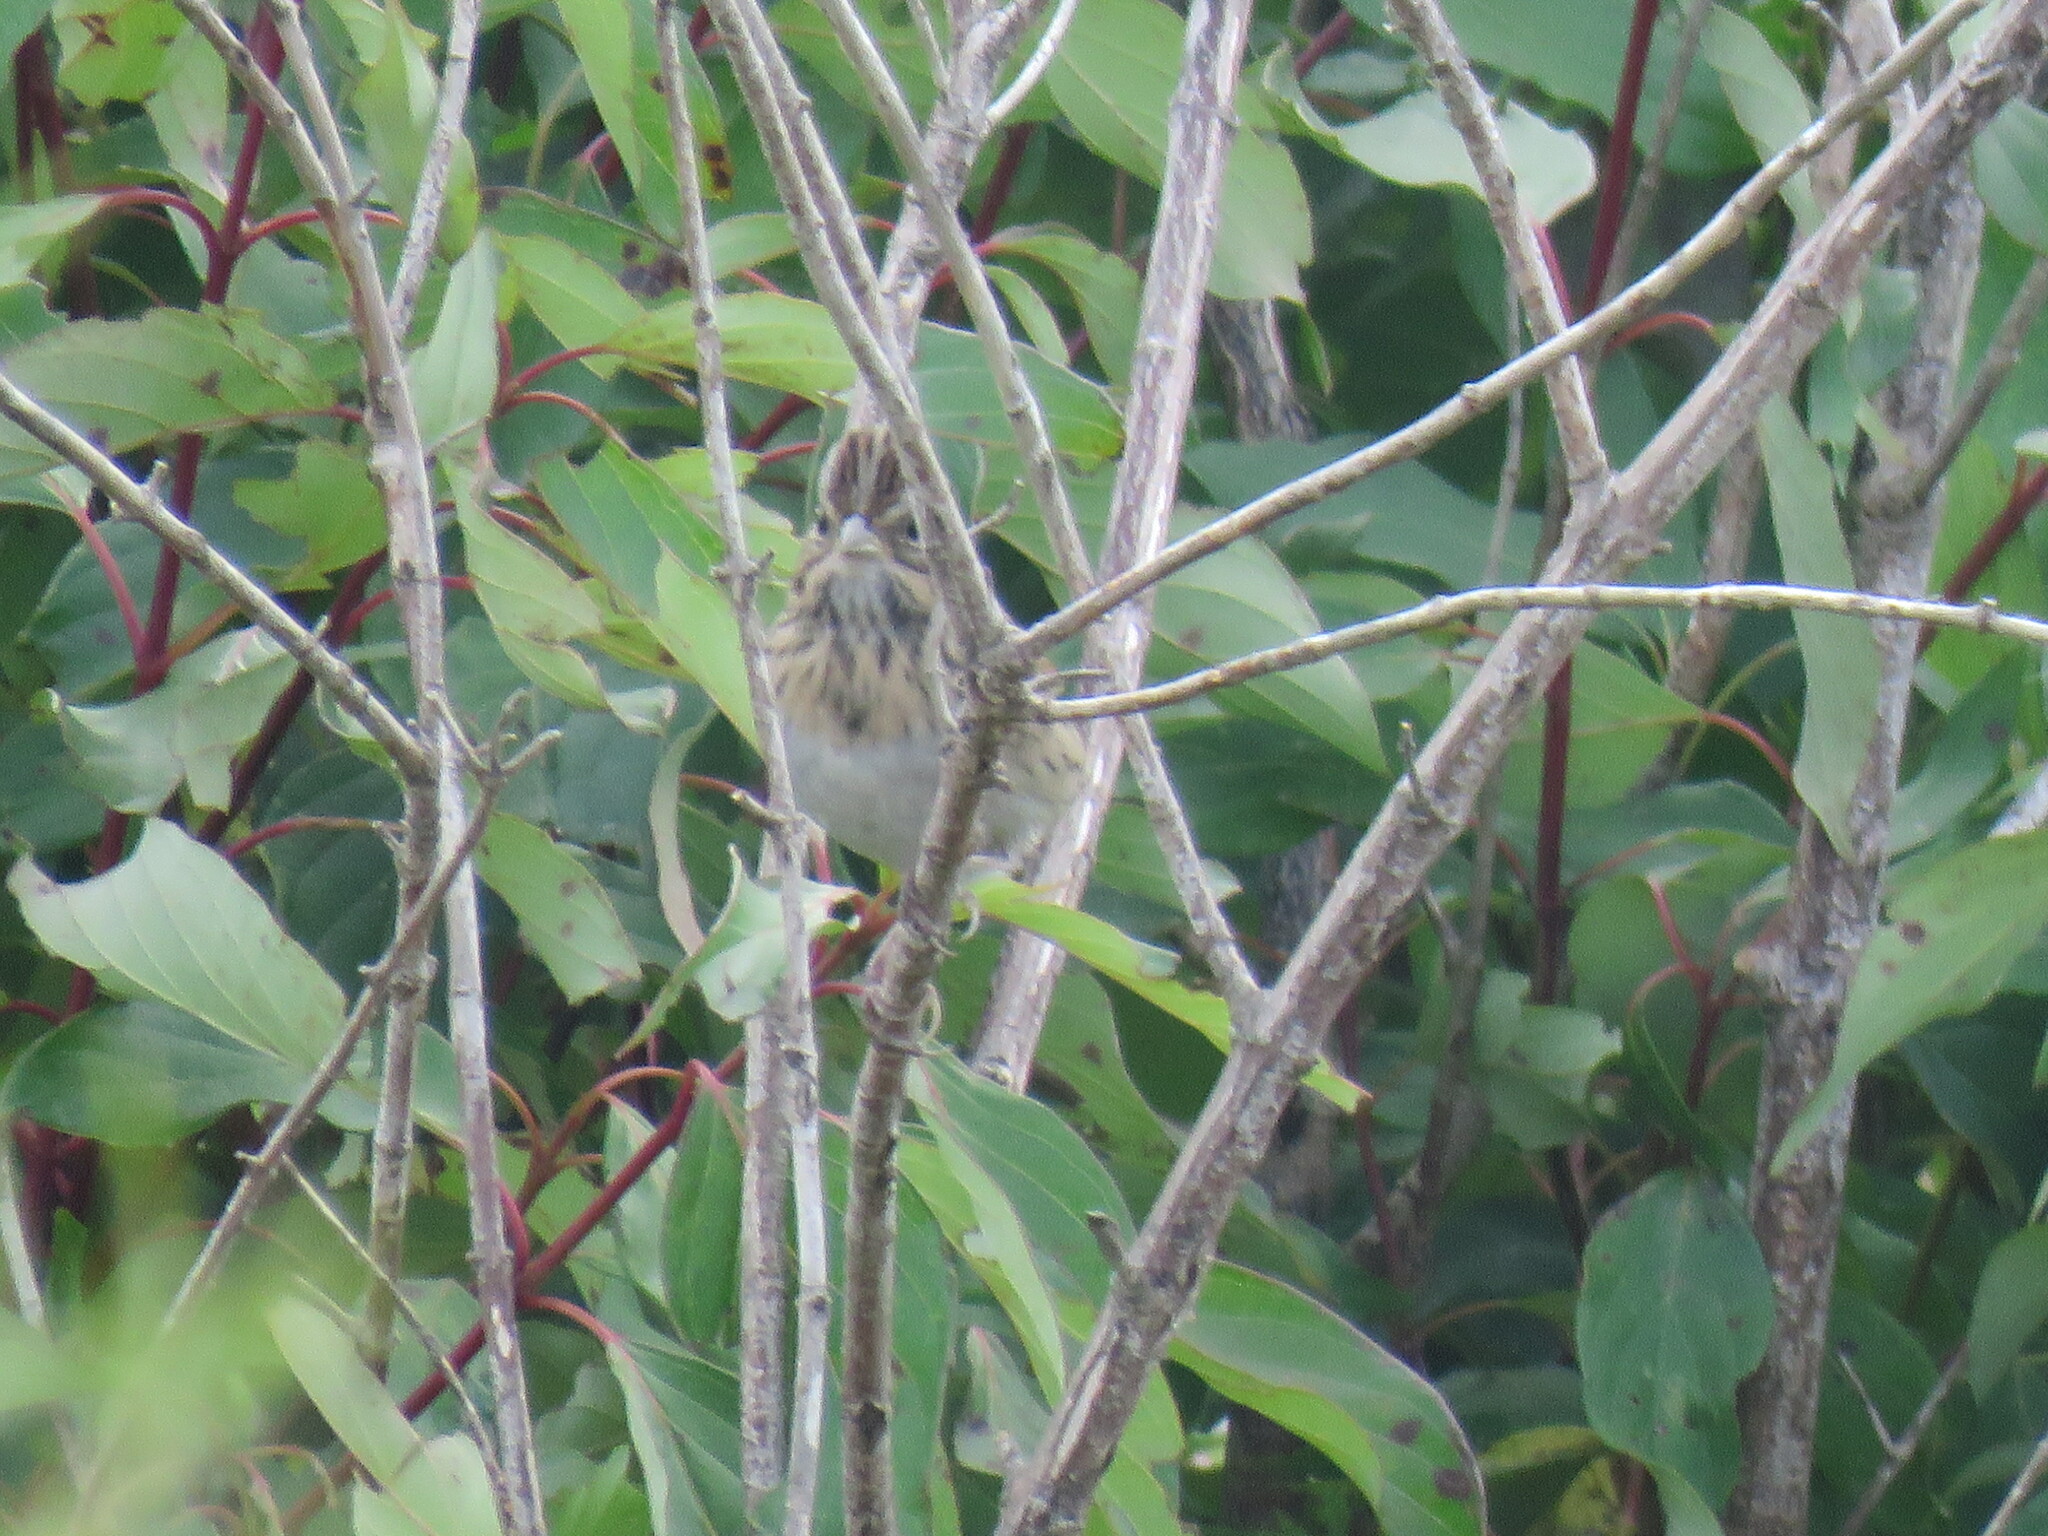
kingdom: Animalia
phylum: Chordata
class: Aves
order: Passeriformes
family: Passerellidae
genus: Melospiza
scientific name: Melospiza lincolnii
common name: Lincoln's sparrow
